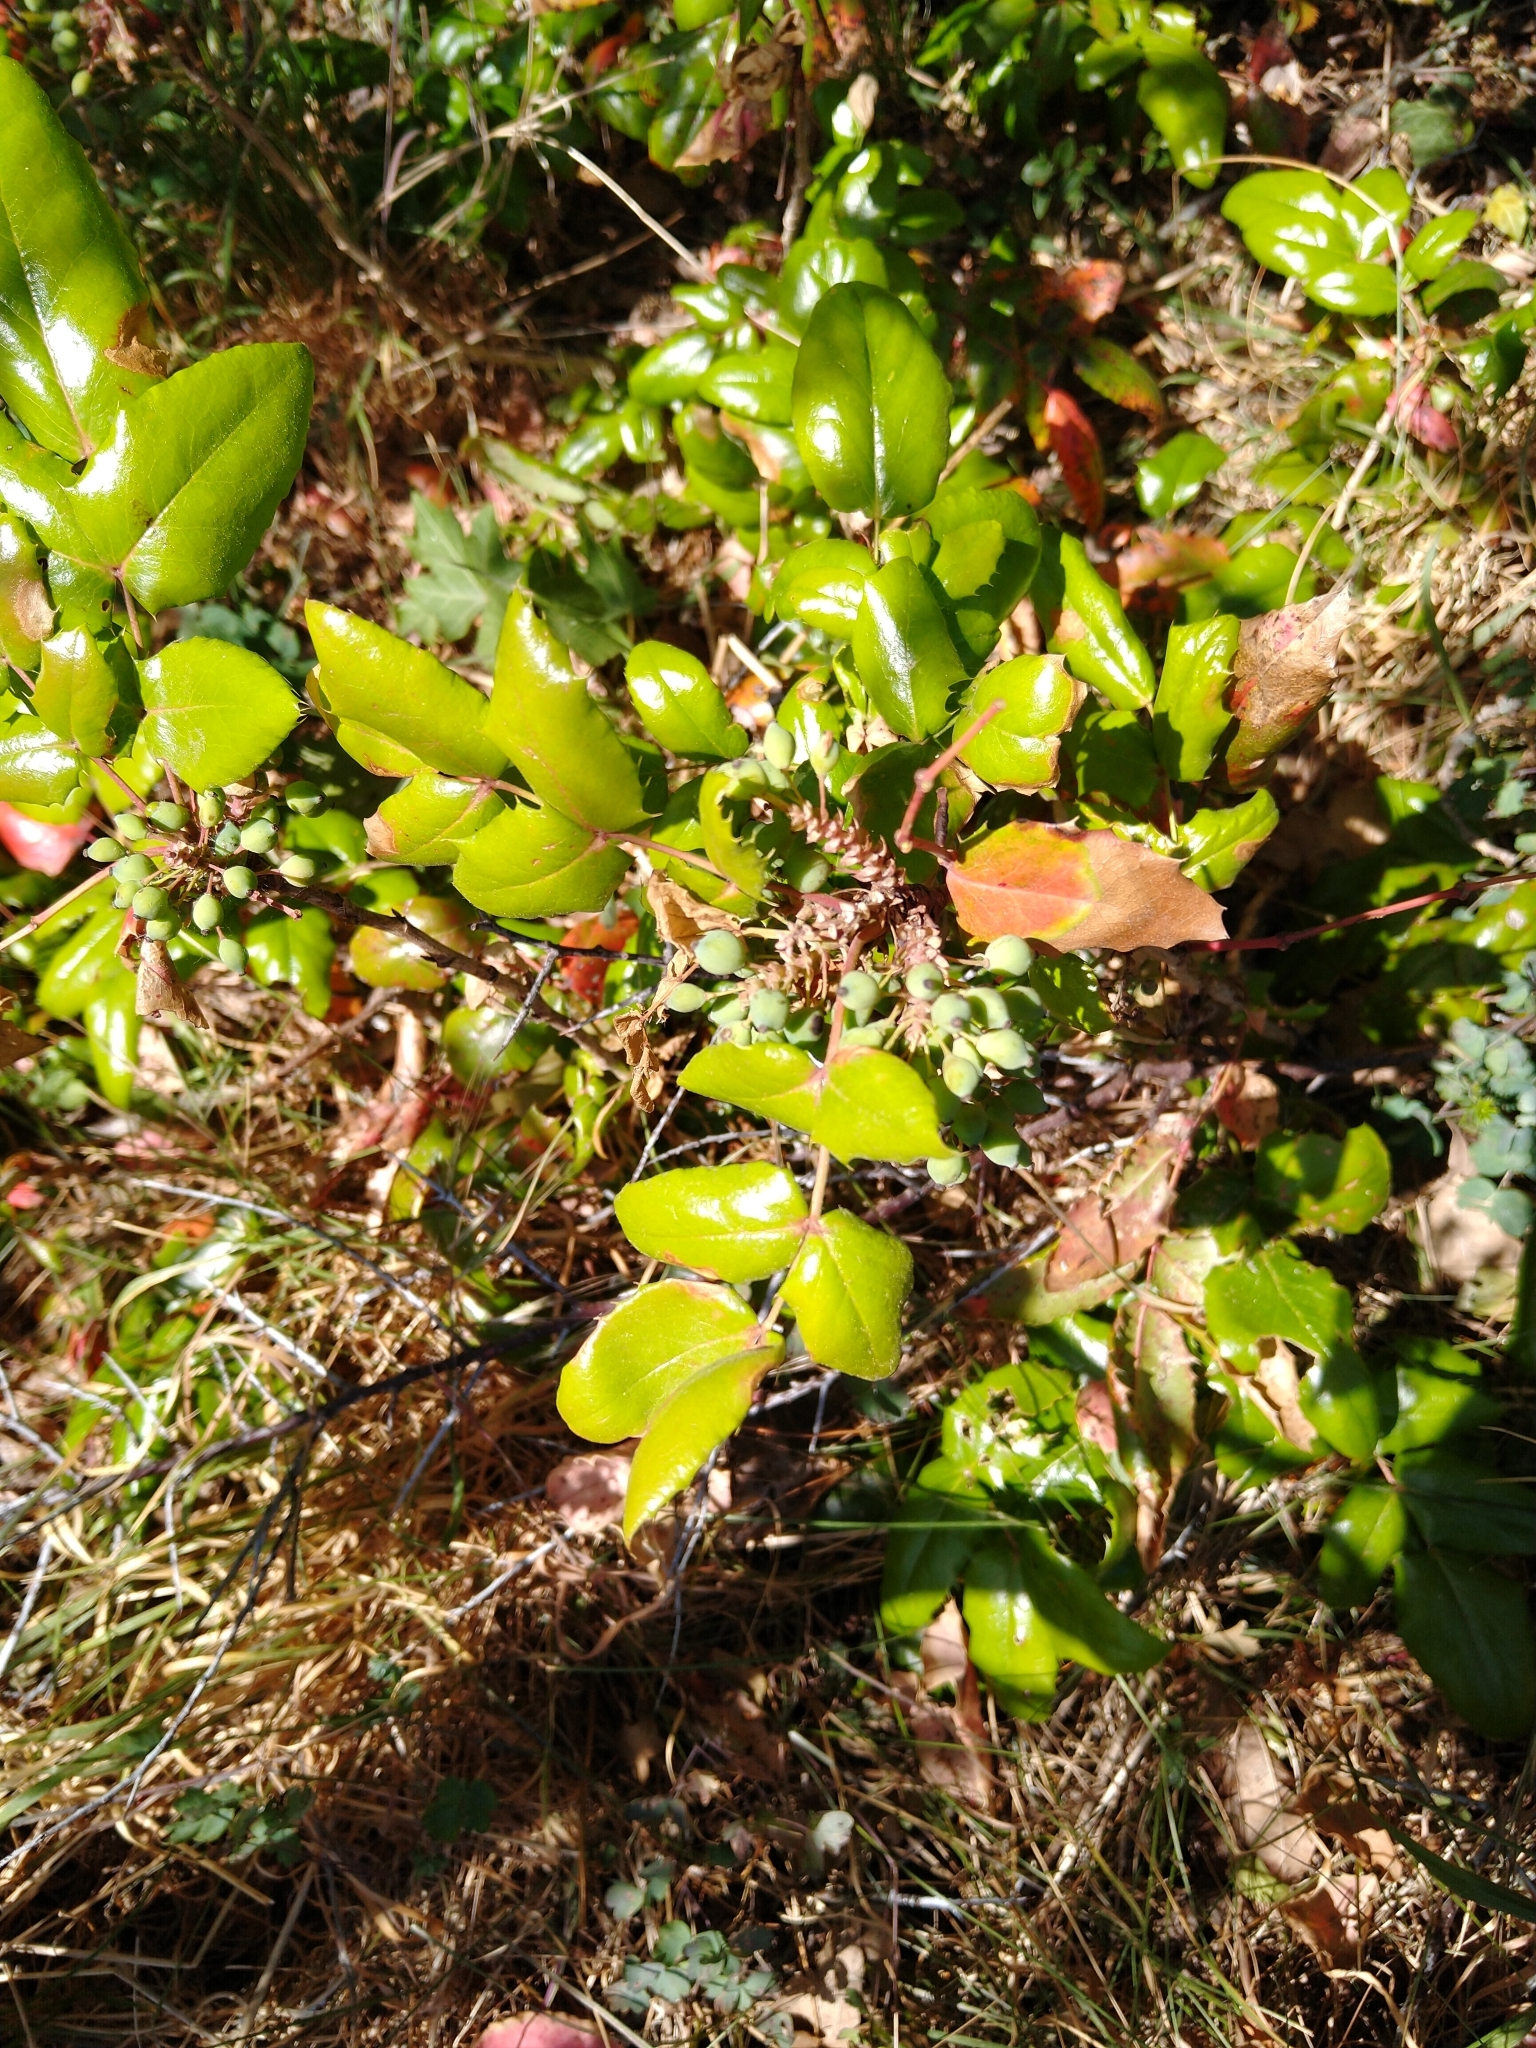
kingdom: Plantae
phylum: Tracheophyta
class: Magnoliopsida
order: Ranunculales
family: Berberidaceae
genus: Mahonia
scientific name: Mahonia aquifolium
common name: Oregon-grape
